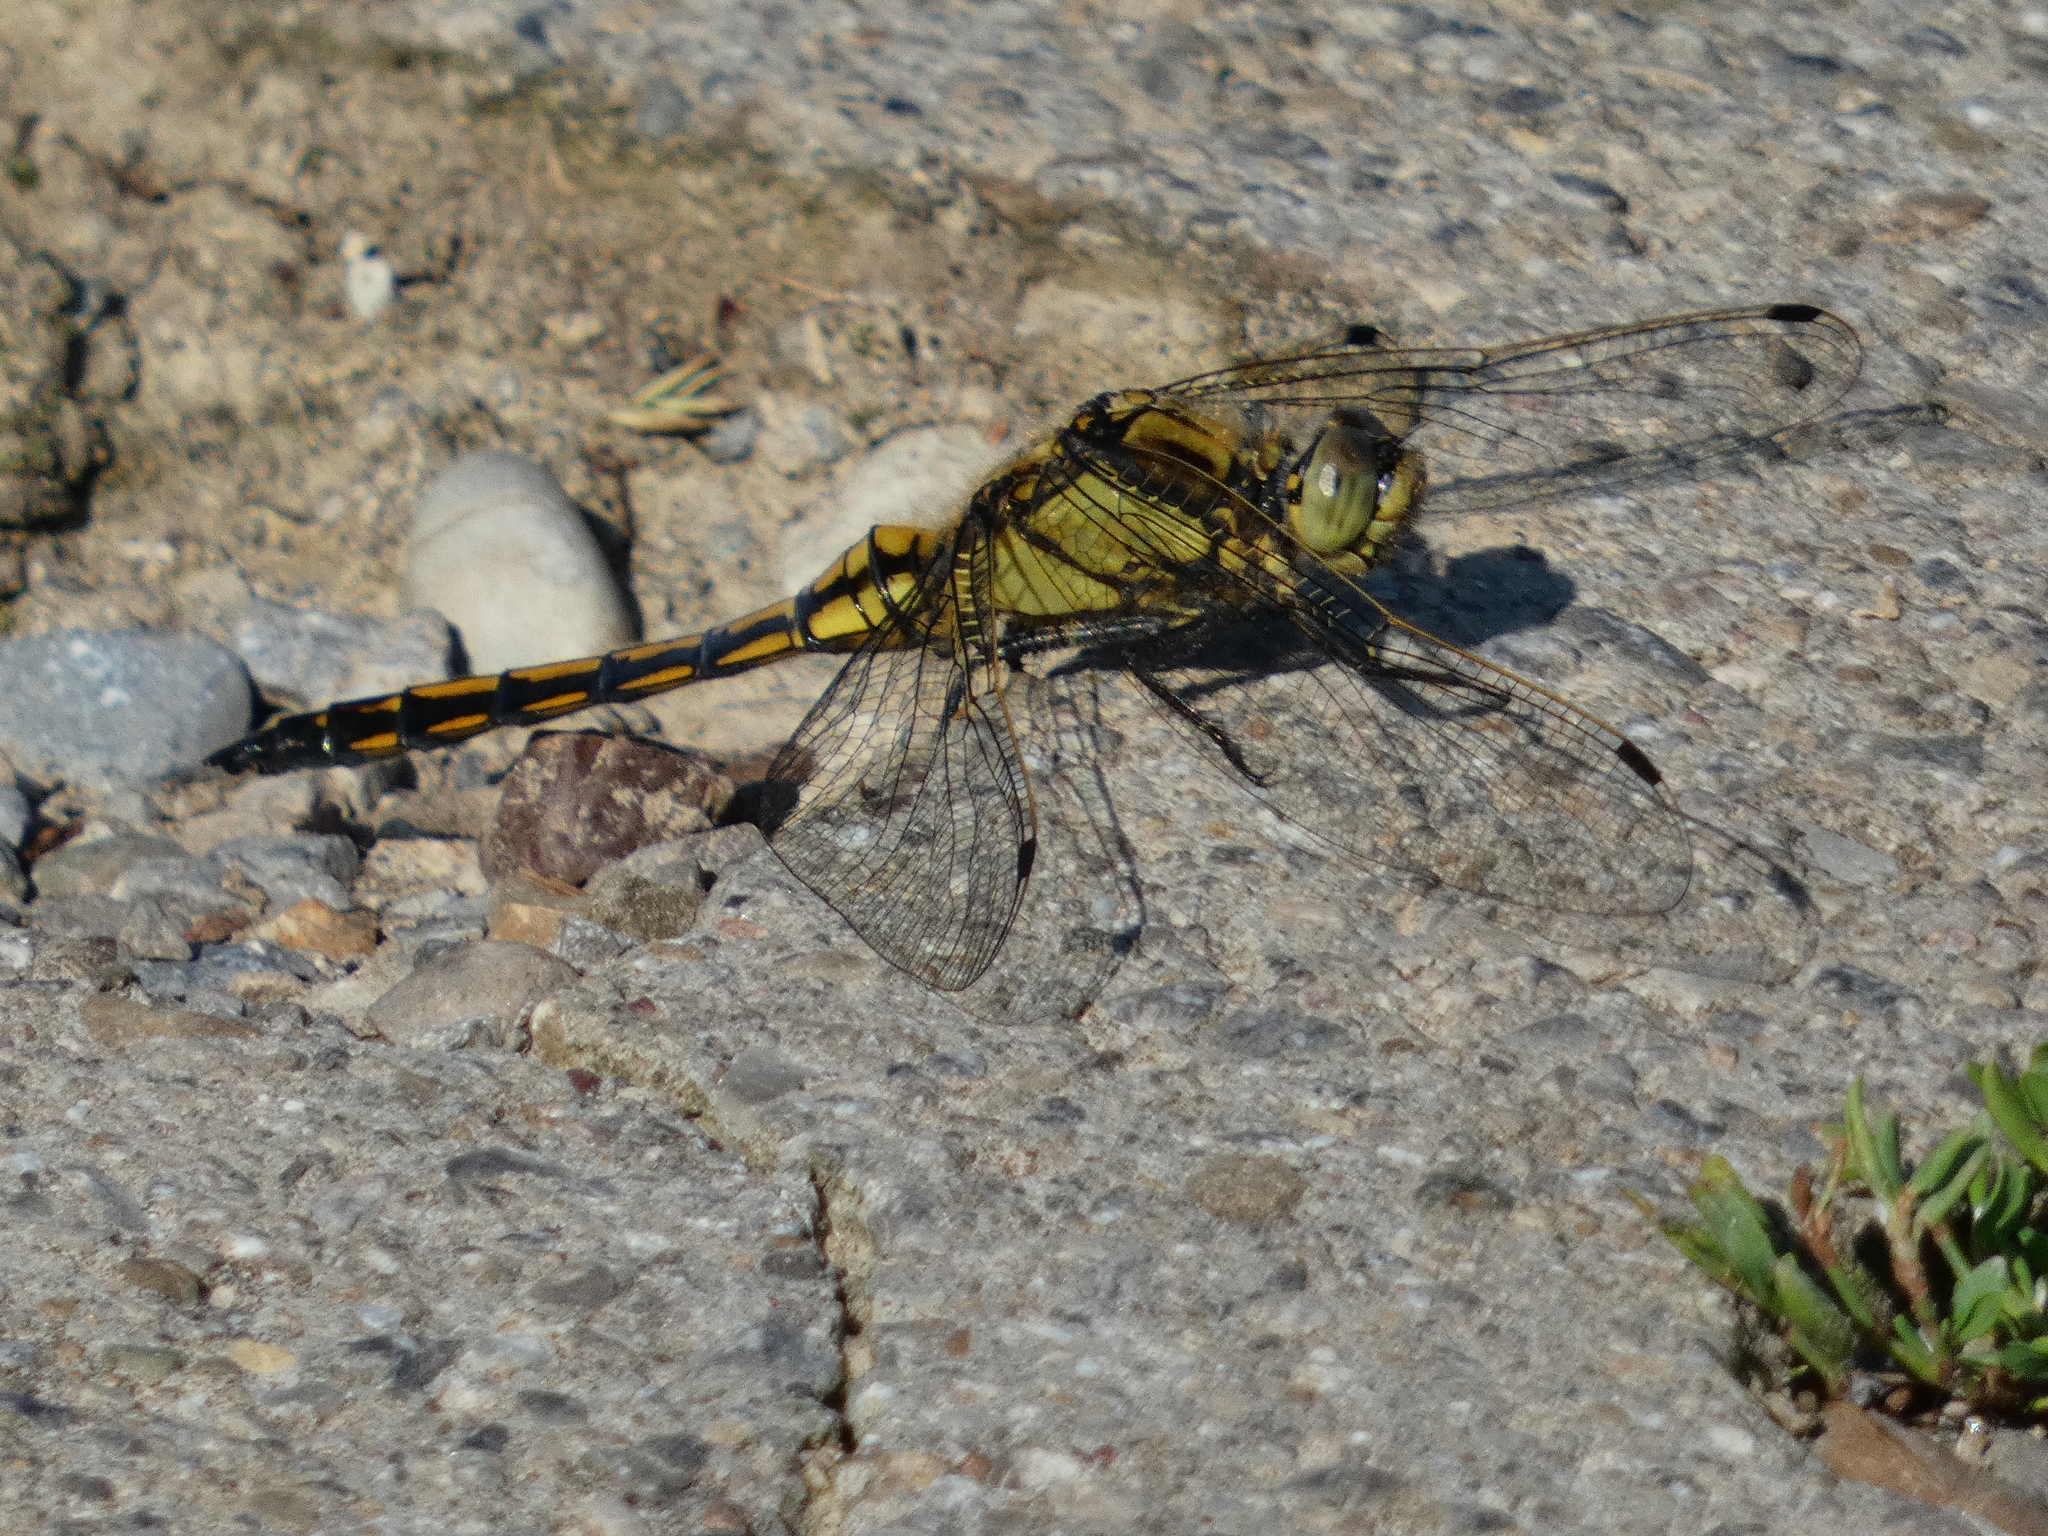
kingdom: Animalia
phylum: Arthropoda
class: Insecta
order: Odonata
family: Libellulidae
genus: Orthetrum
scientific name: Orthetrum cancellatum
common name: Black-tailed skimmer
